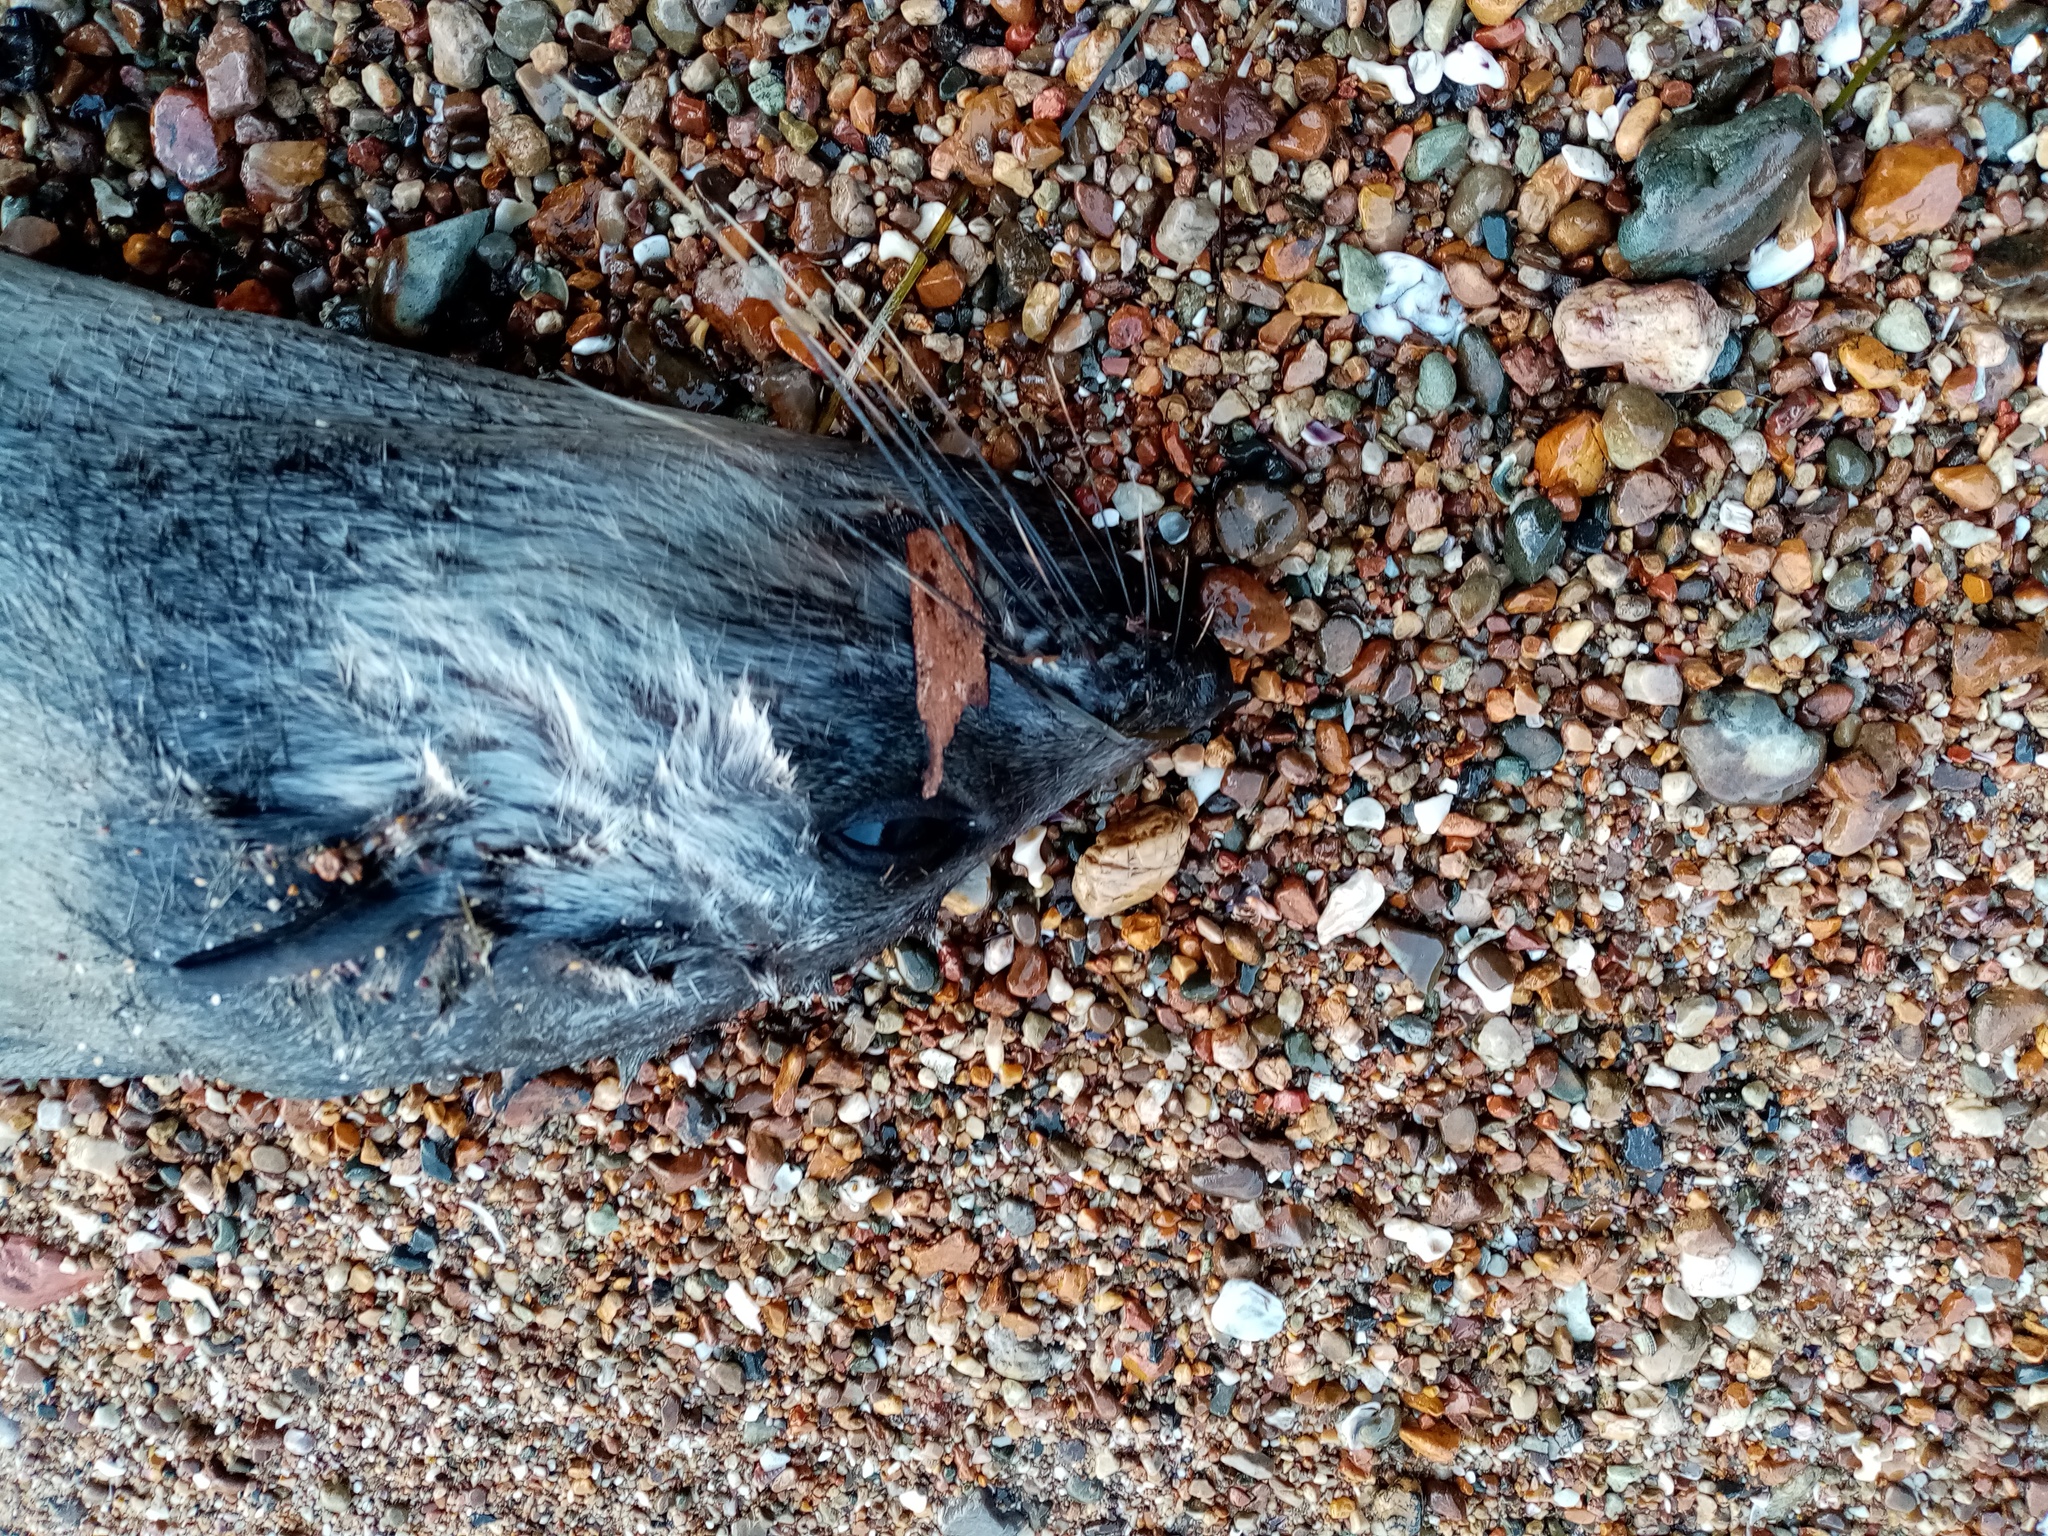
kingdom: Animalia
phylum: Chordata
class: Mammalia
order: Carnivora
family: Otariidae
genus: Arctocephalus
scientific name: Arctocephalus tropicalis
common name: Subantarctic fur seal
